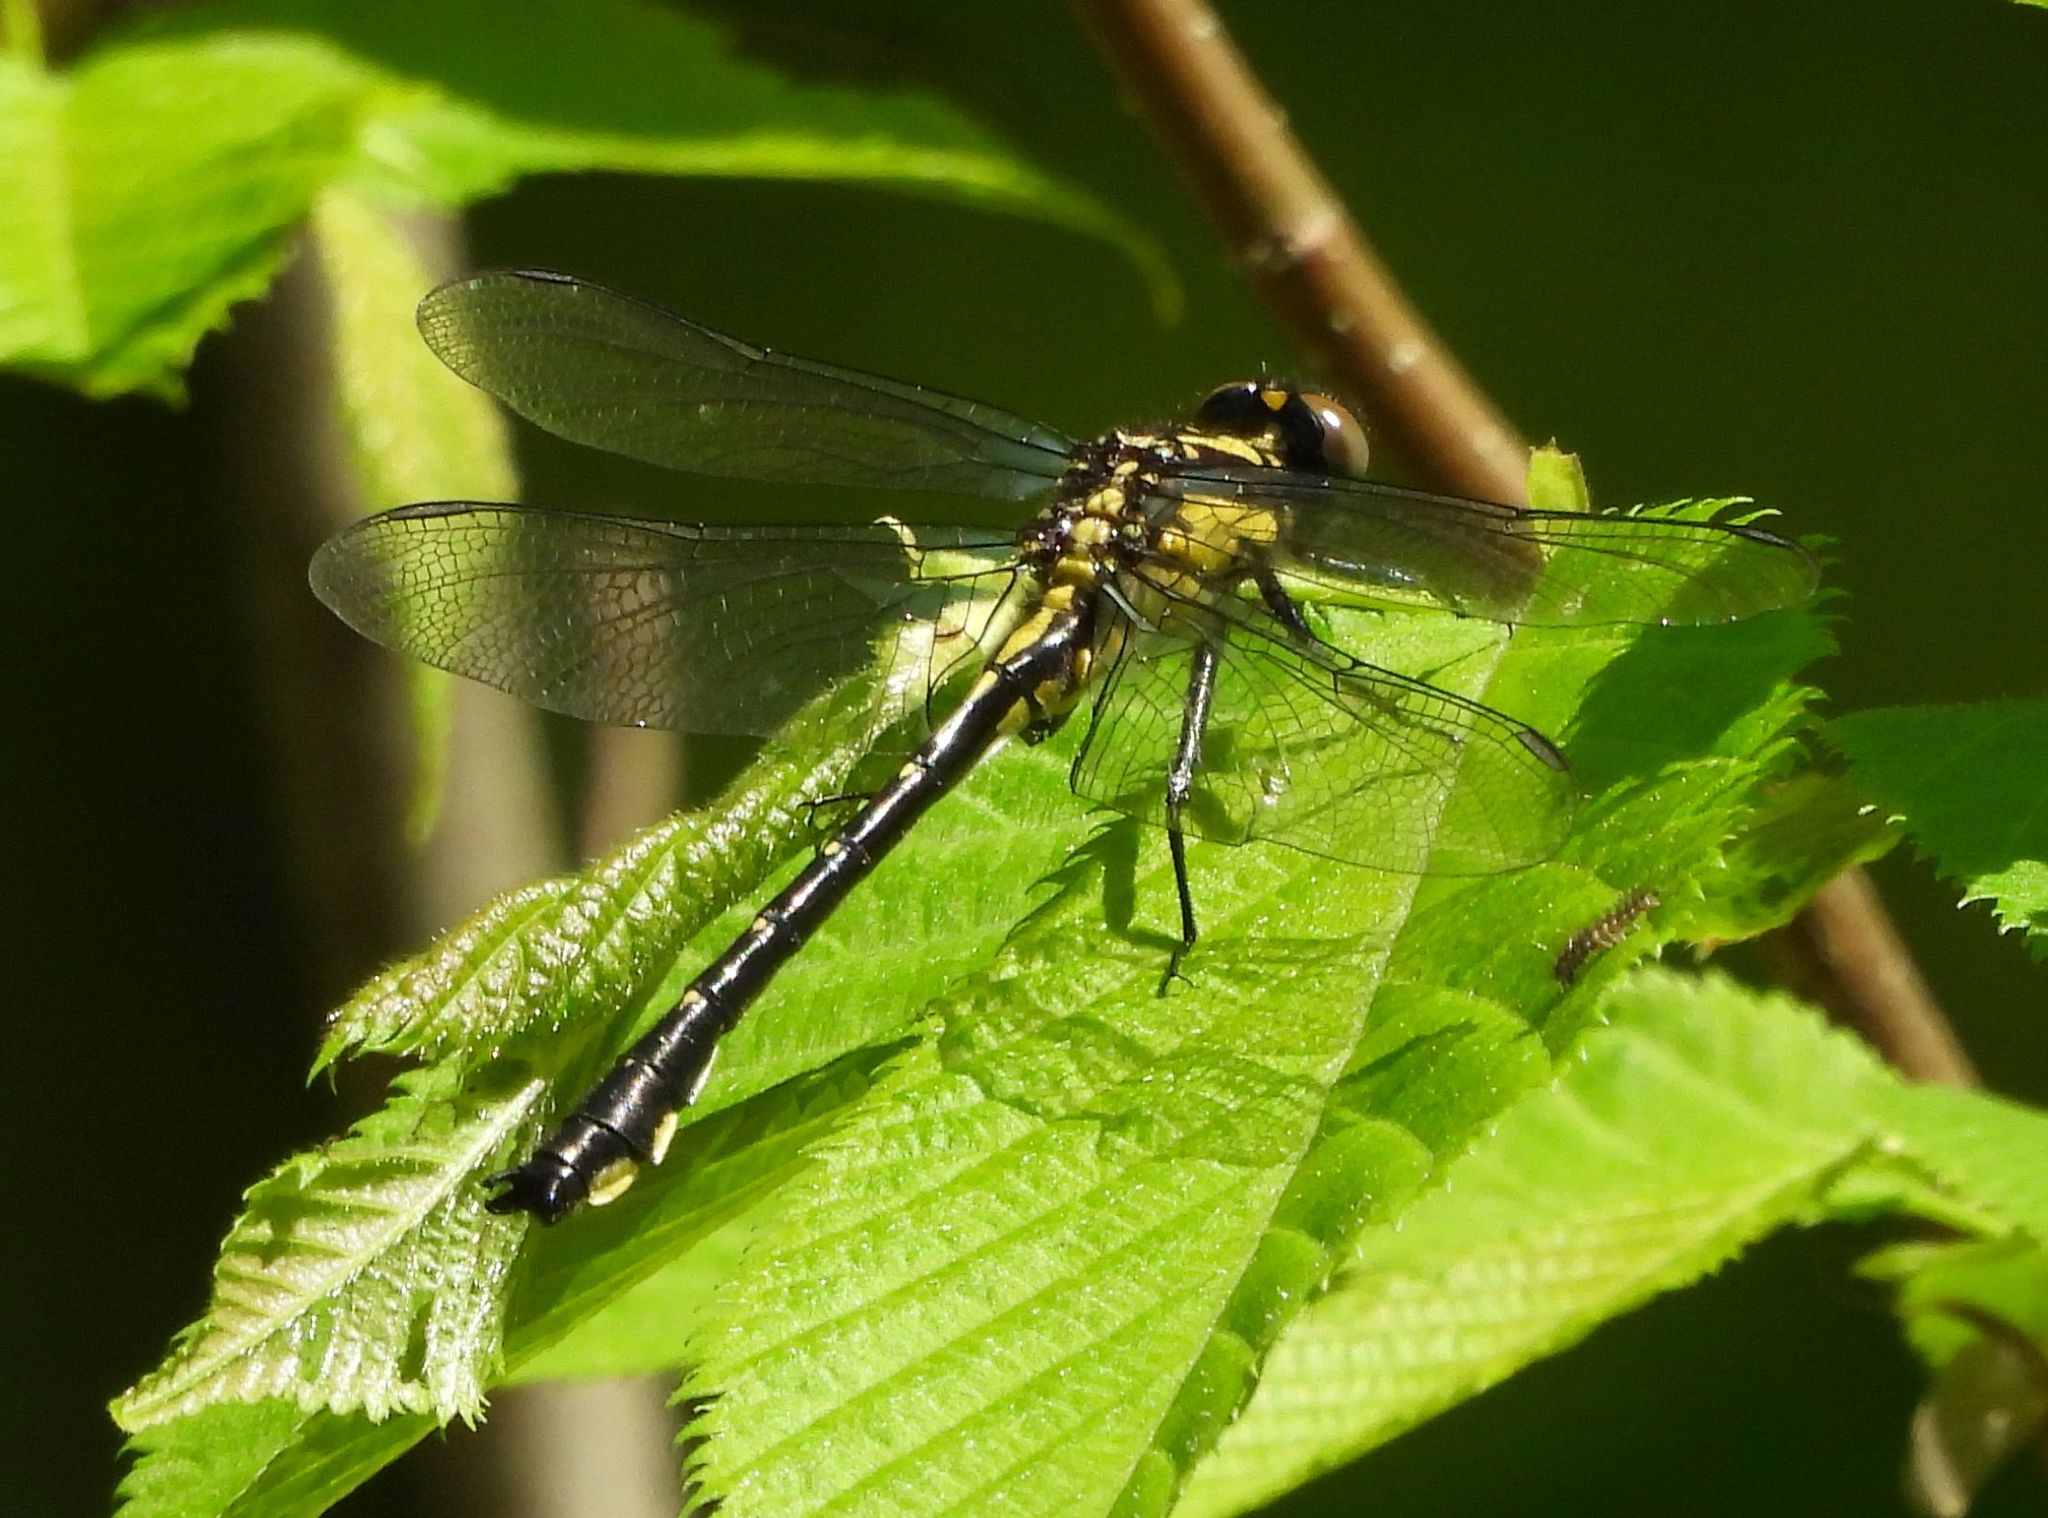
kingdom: Animalia
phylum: Arthropoda
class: Insecta
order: Odonata
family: Gomphidae
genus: Hylogomphus
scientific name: Hylogomphus adelphus
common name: Mustached clubtail
